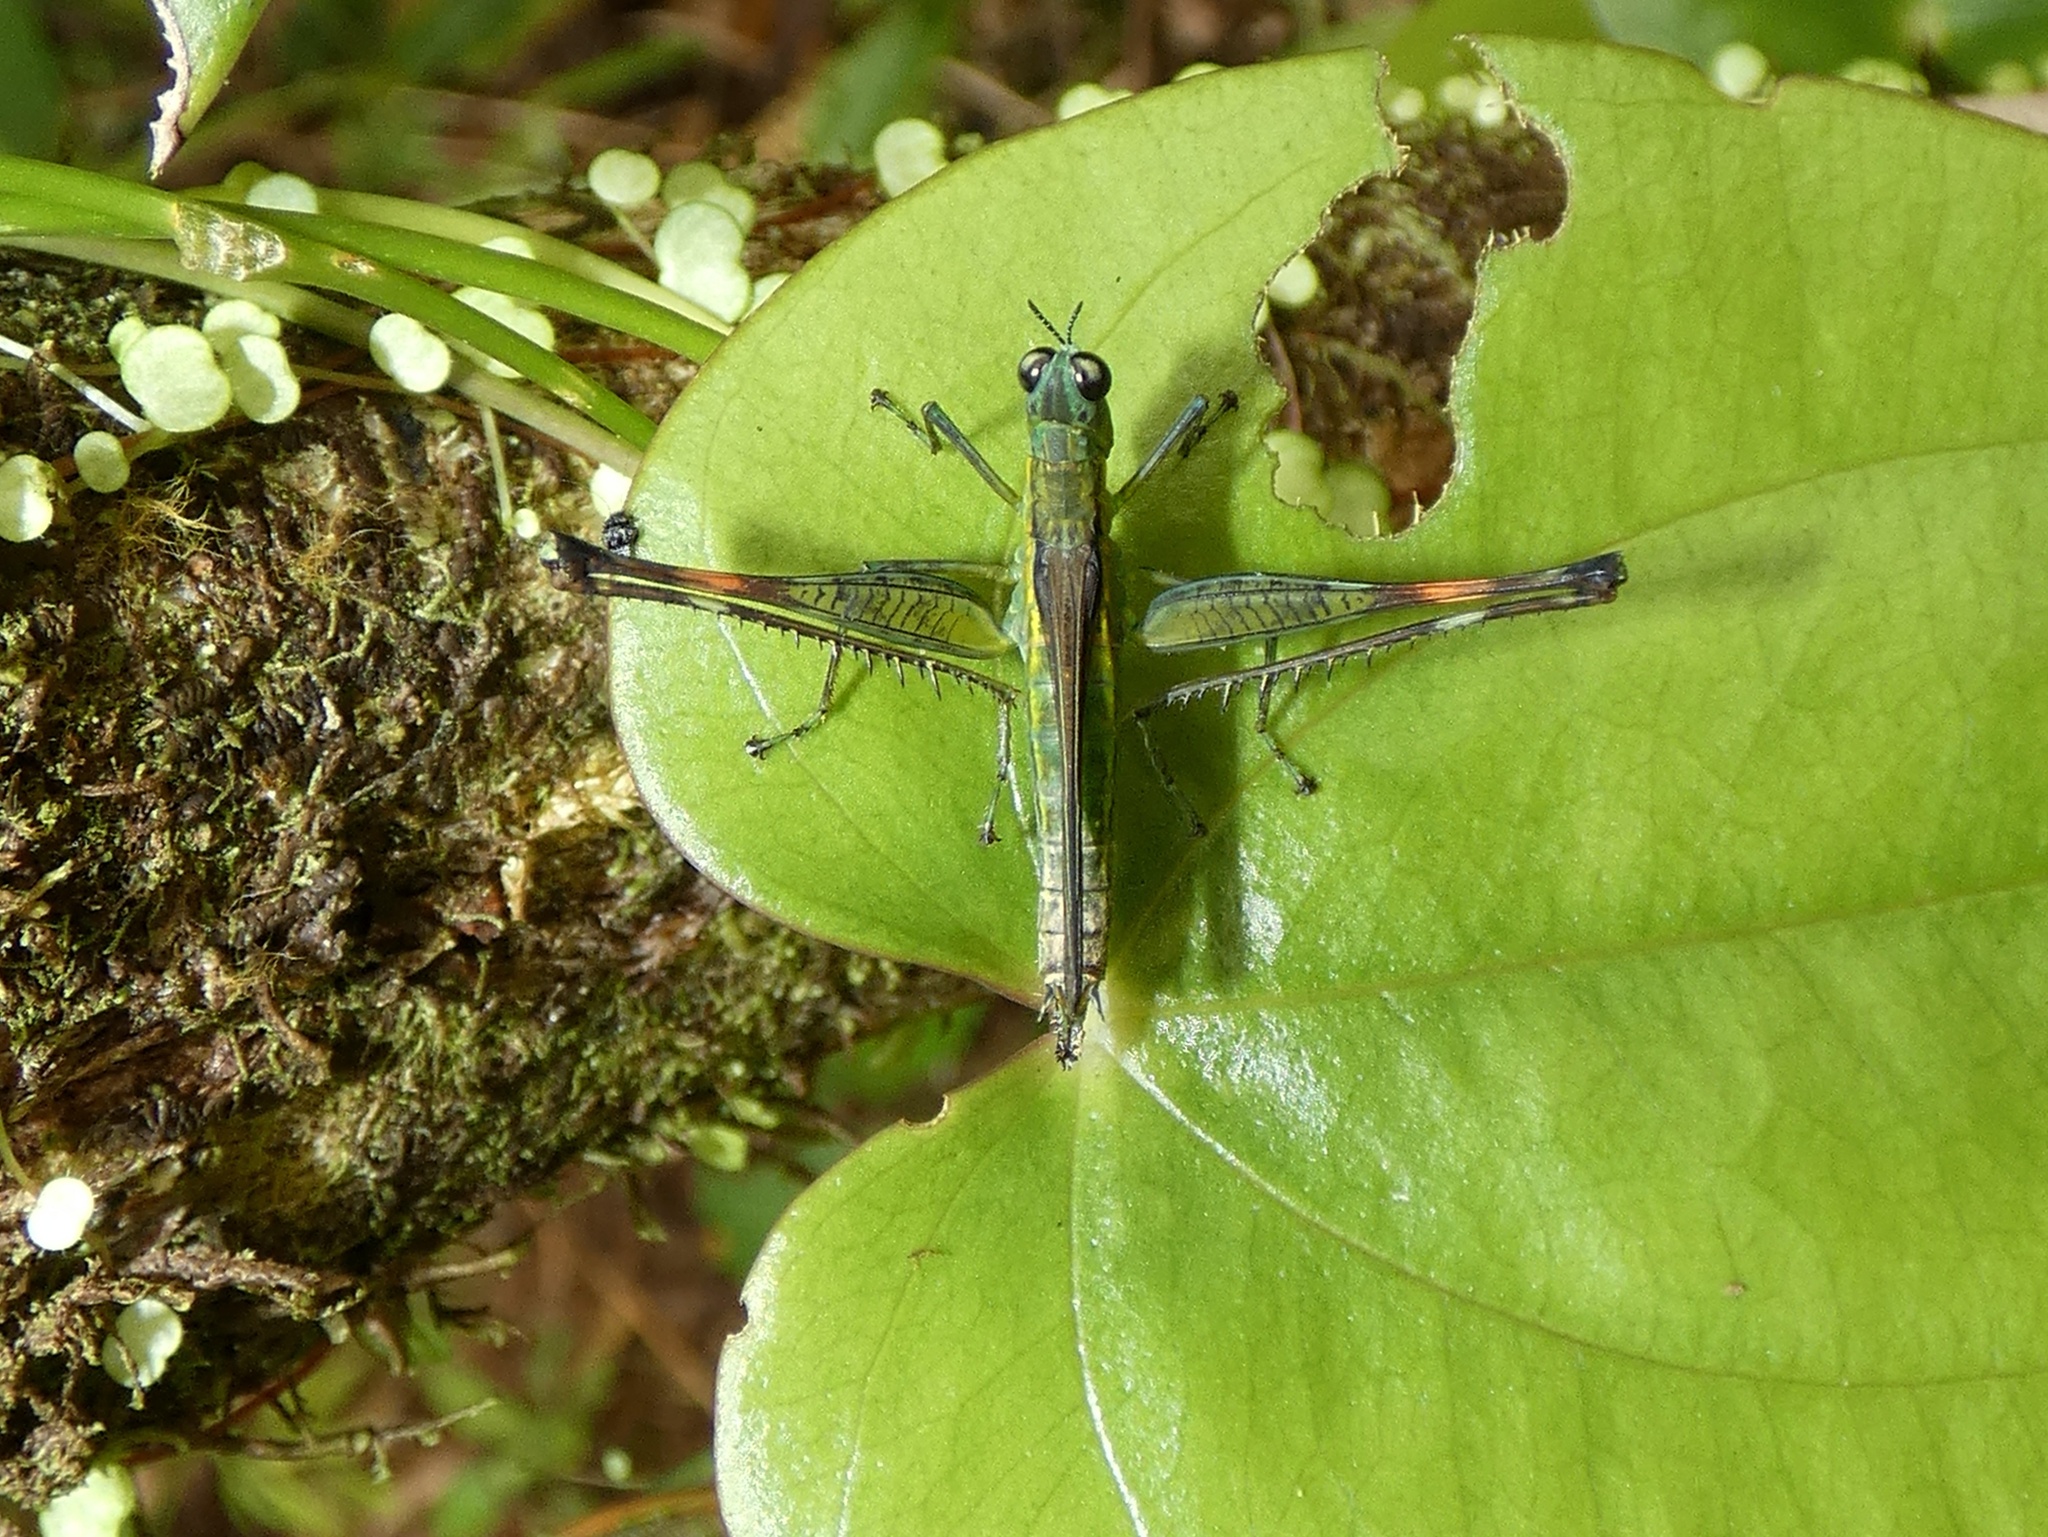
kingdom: Animalia
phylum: Arthropoda
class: Insecta
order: Orthoptera
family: Eumastacidae
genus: Homeomastax
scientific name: Homeomastax cerciata
